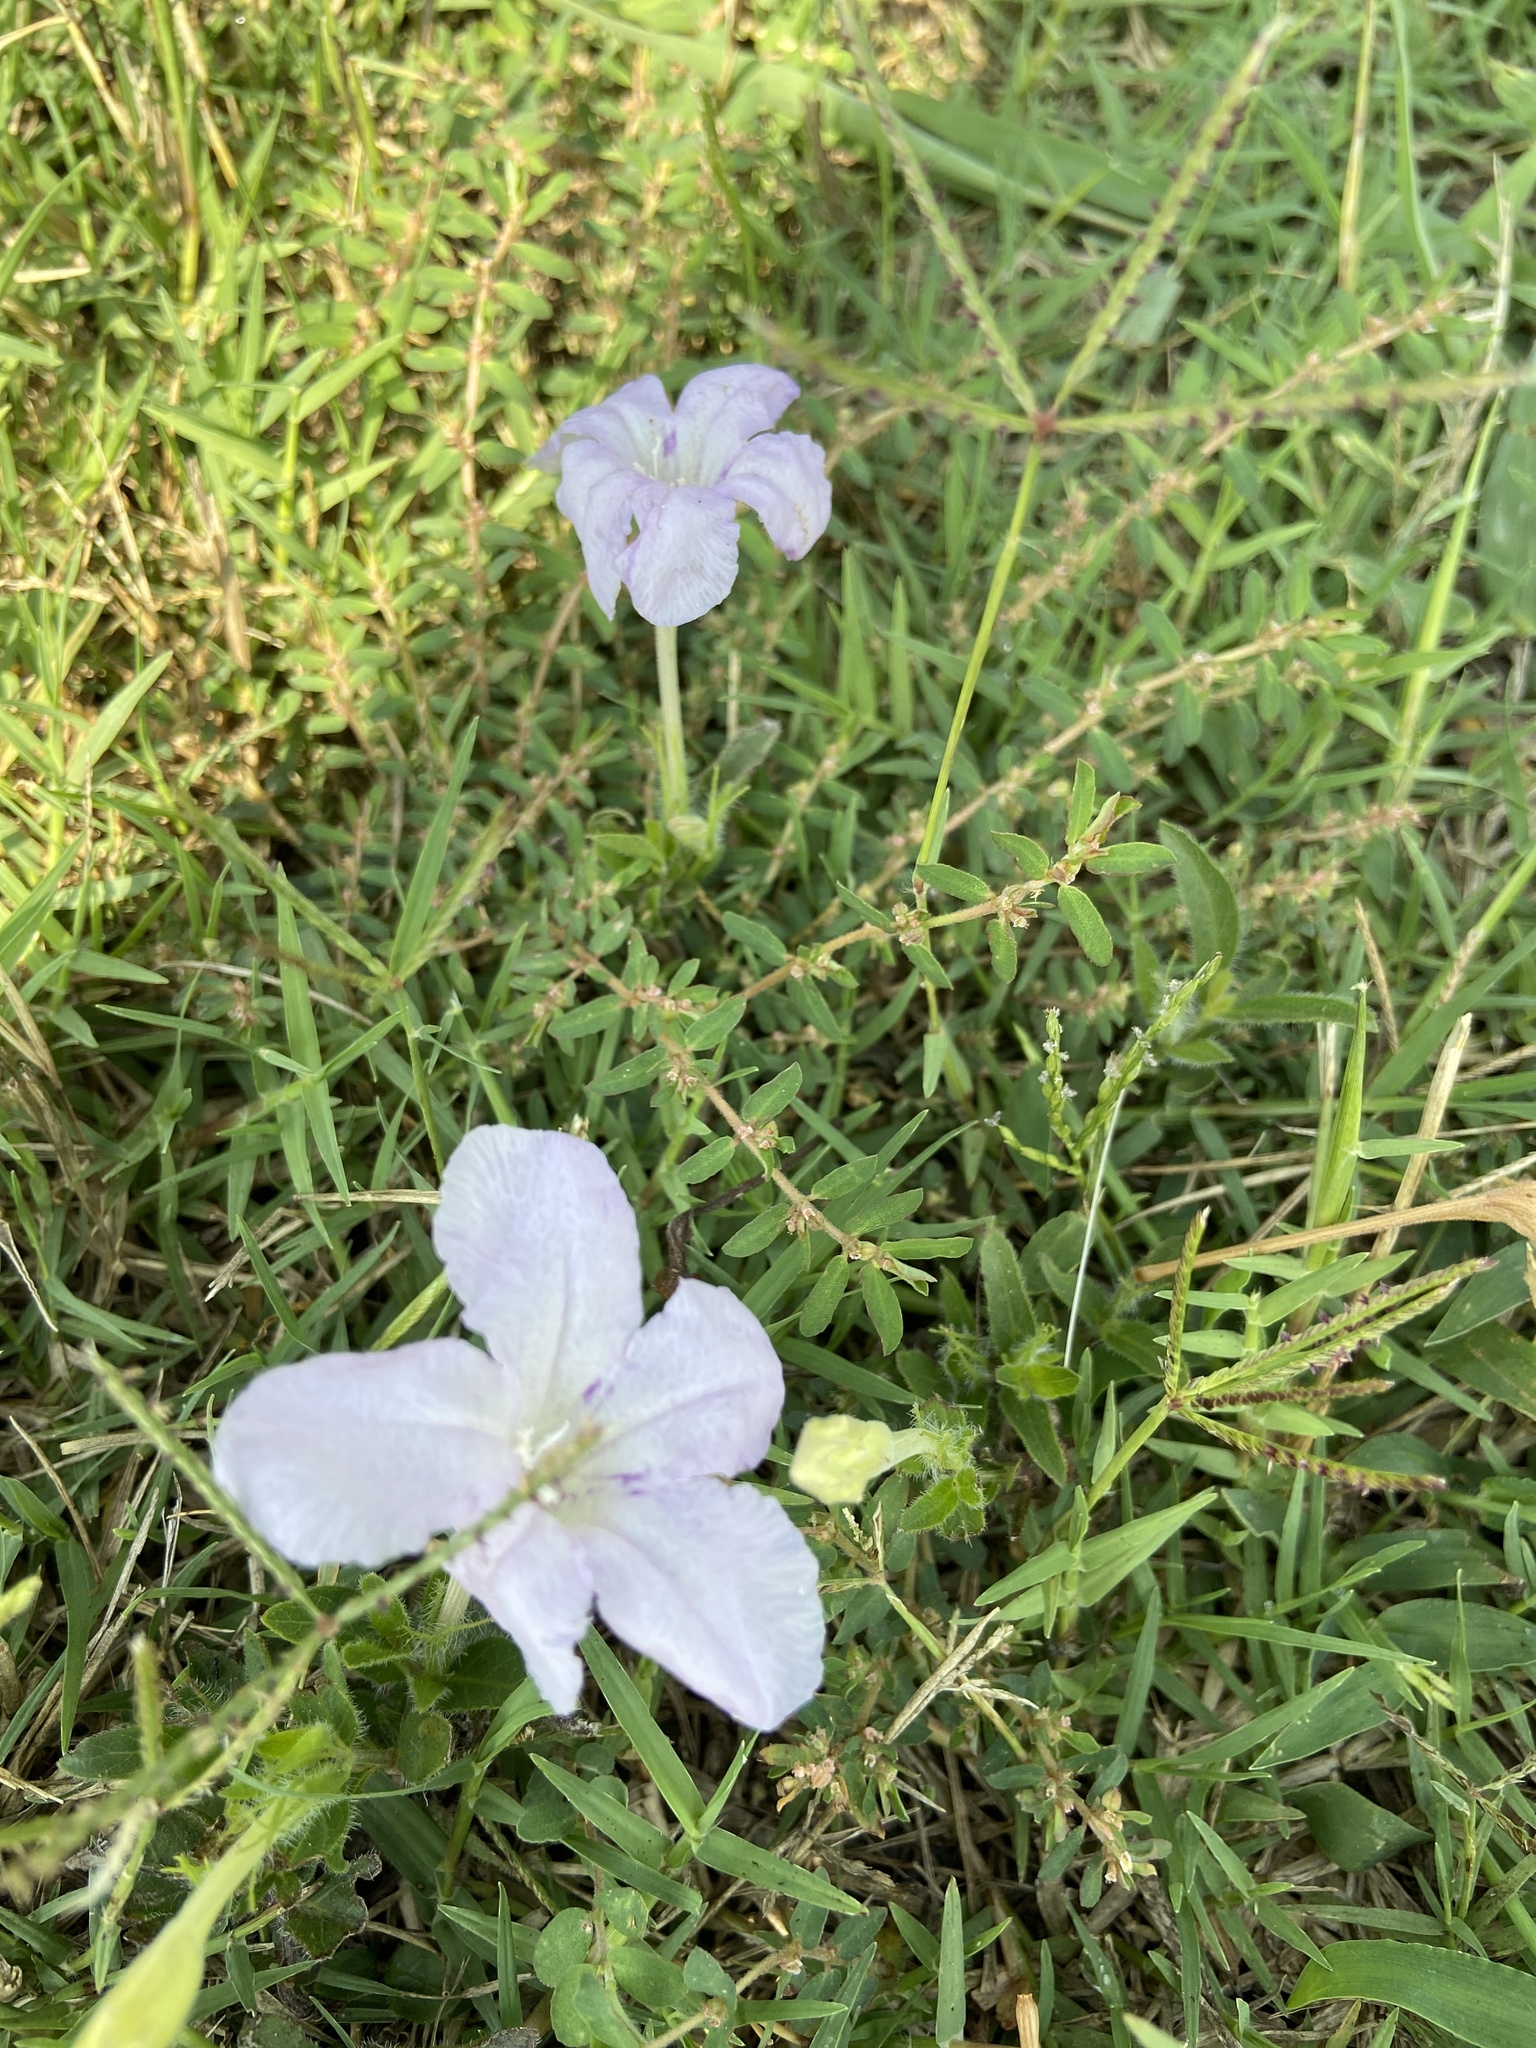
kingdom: Plantae
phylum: Tracheophyta
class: Magnoliopsida
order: Lamiales
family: Acanthaceae
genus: Ruellia
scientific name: Ruellia humilis
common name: Fringe-leaf ruellia
